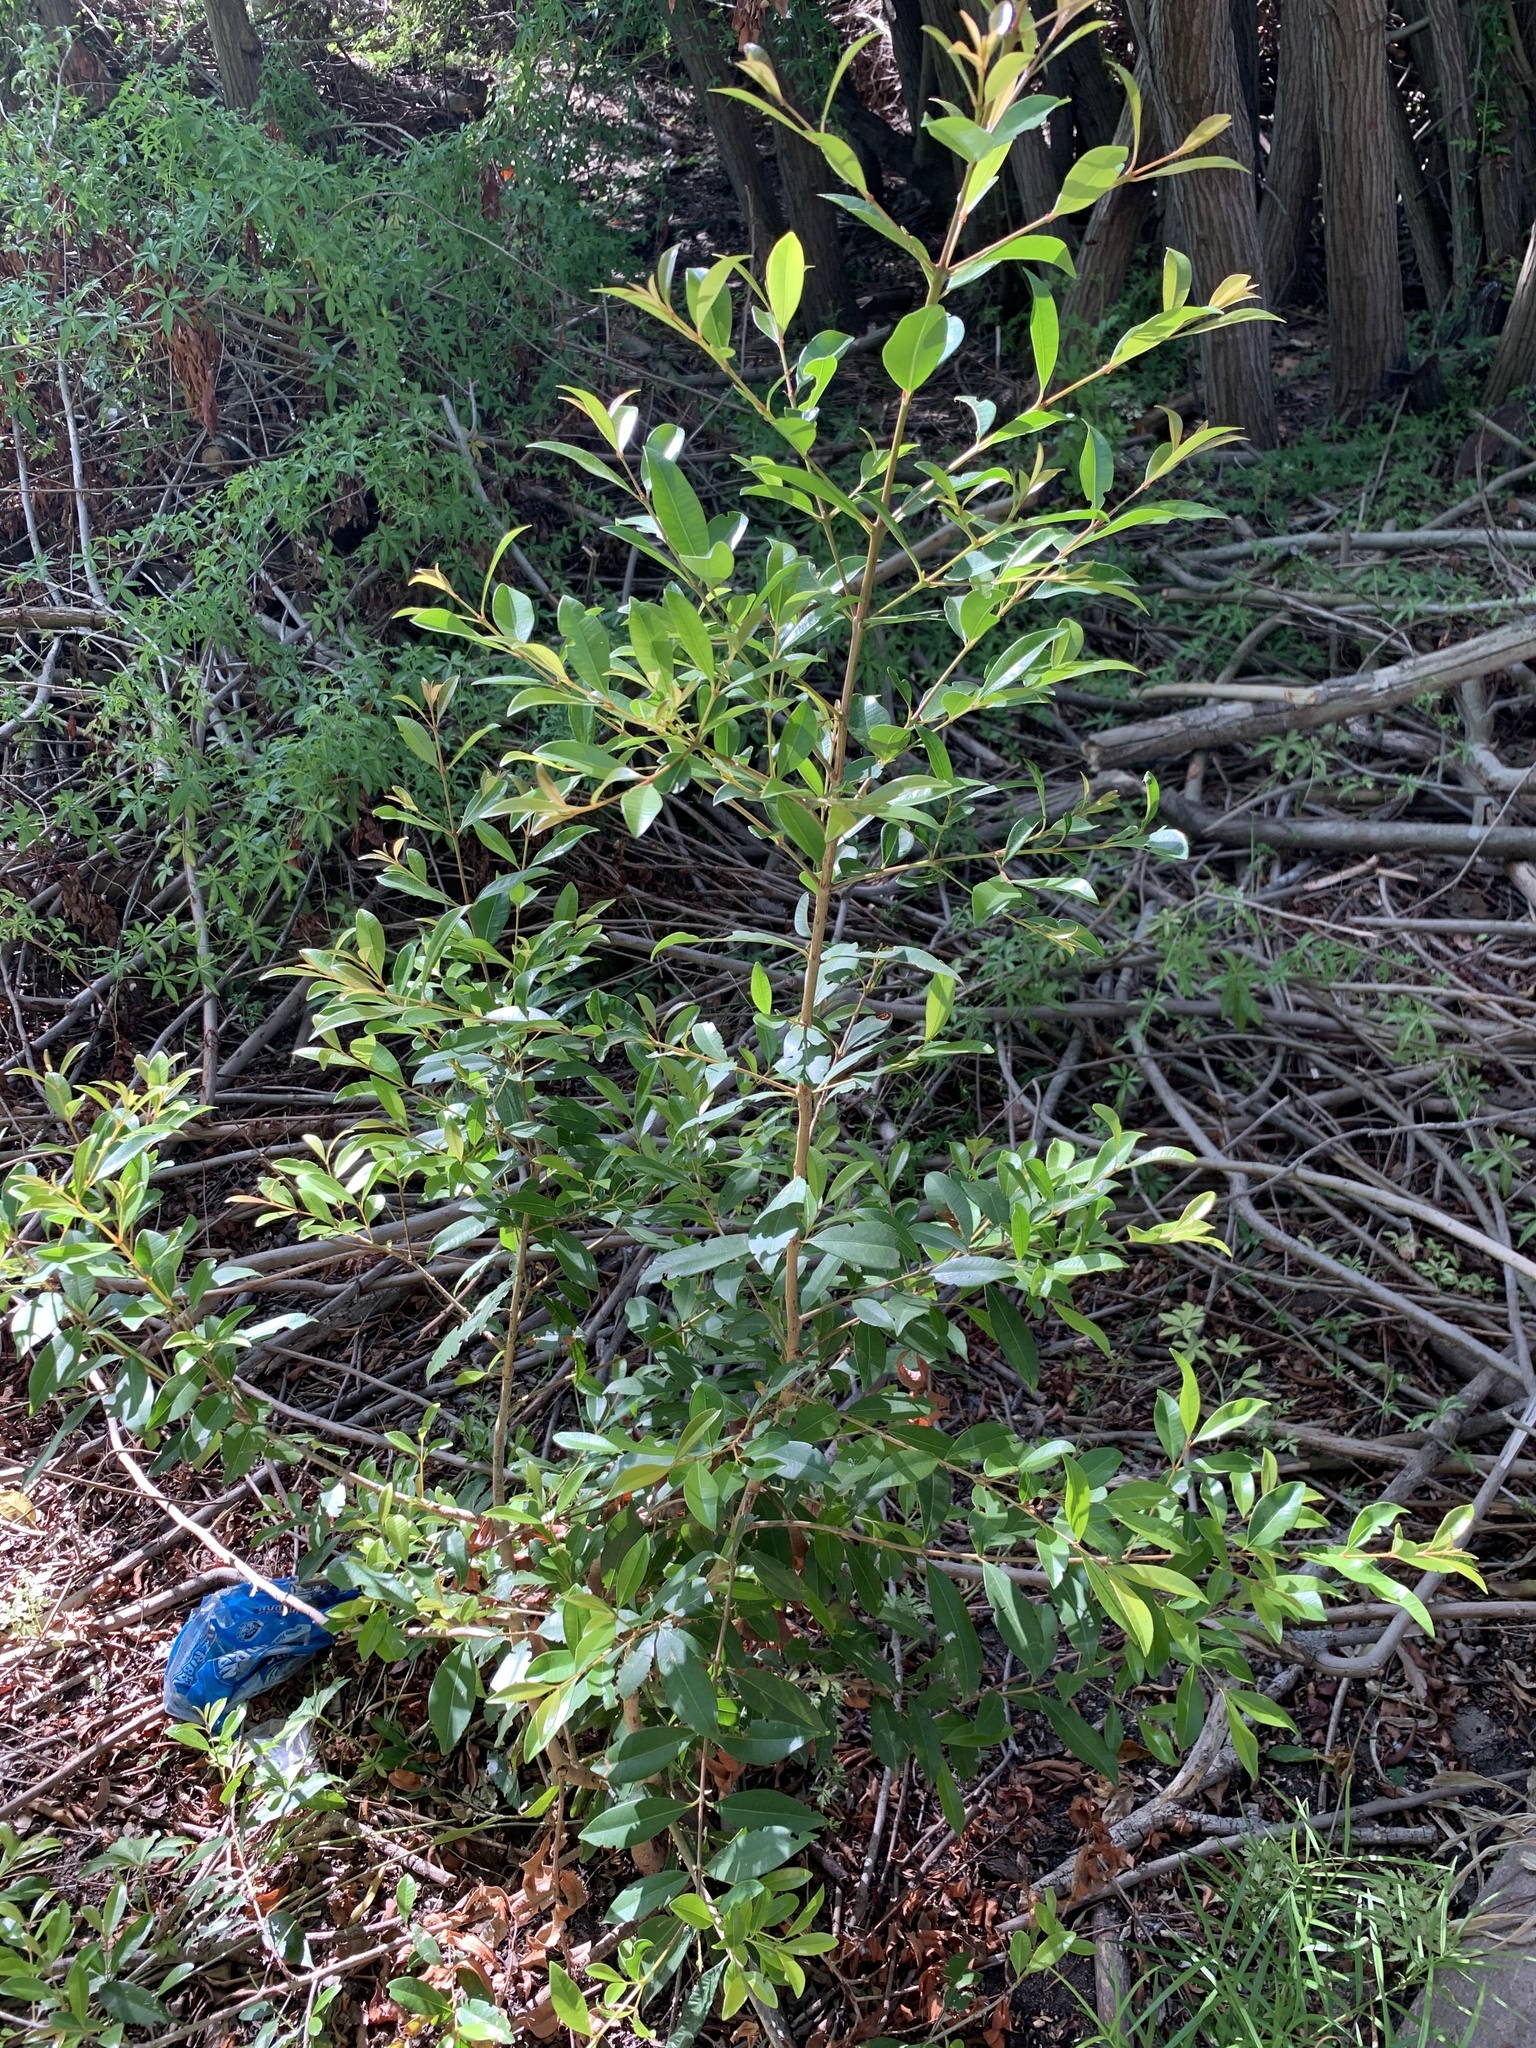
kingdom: Plantae
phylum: Tracheophyta
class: Magnoliopsida
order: Myrtales
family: Myrtaceae
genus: Syzygium
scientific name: Syzygium australe
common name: Australian brush-cherry
